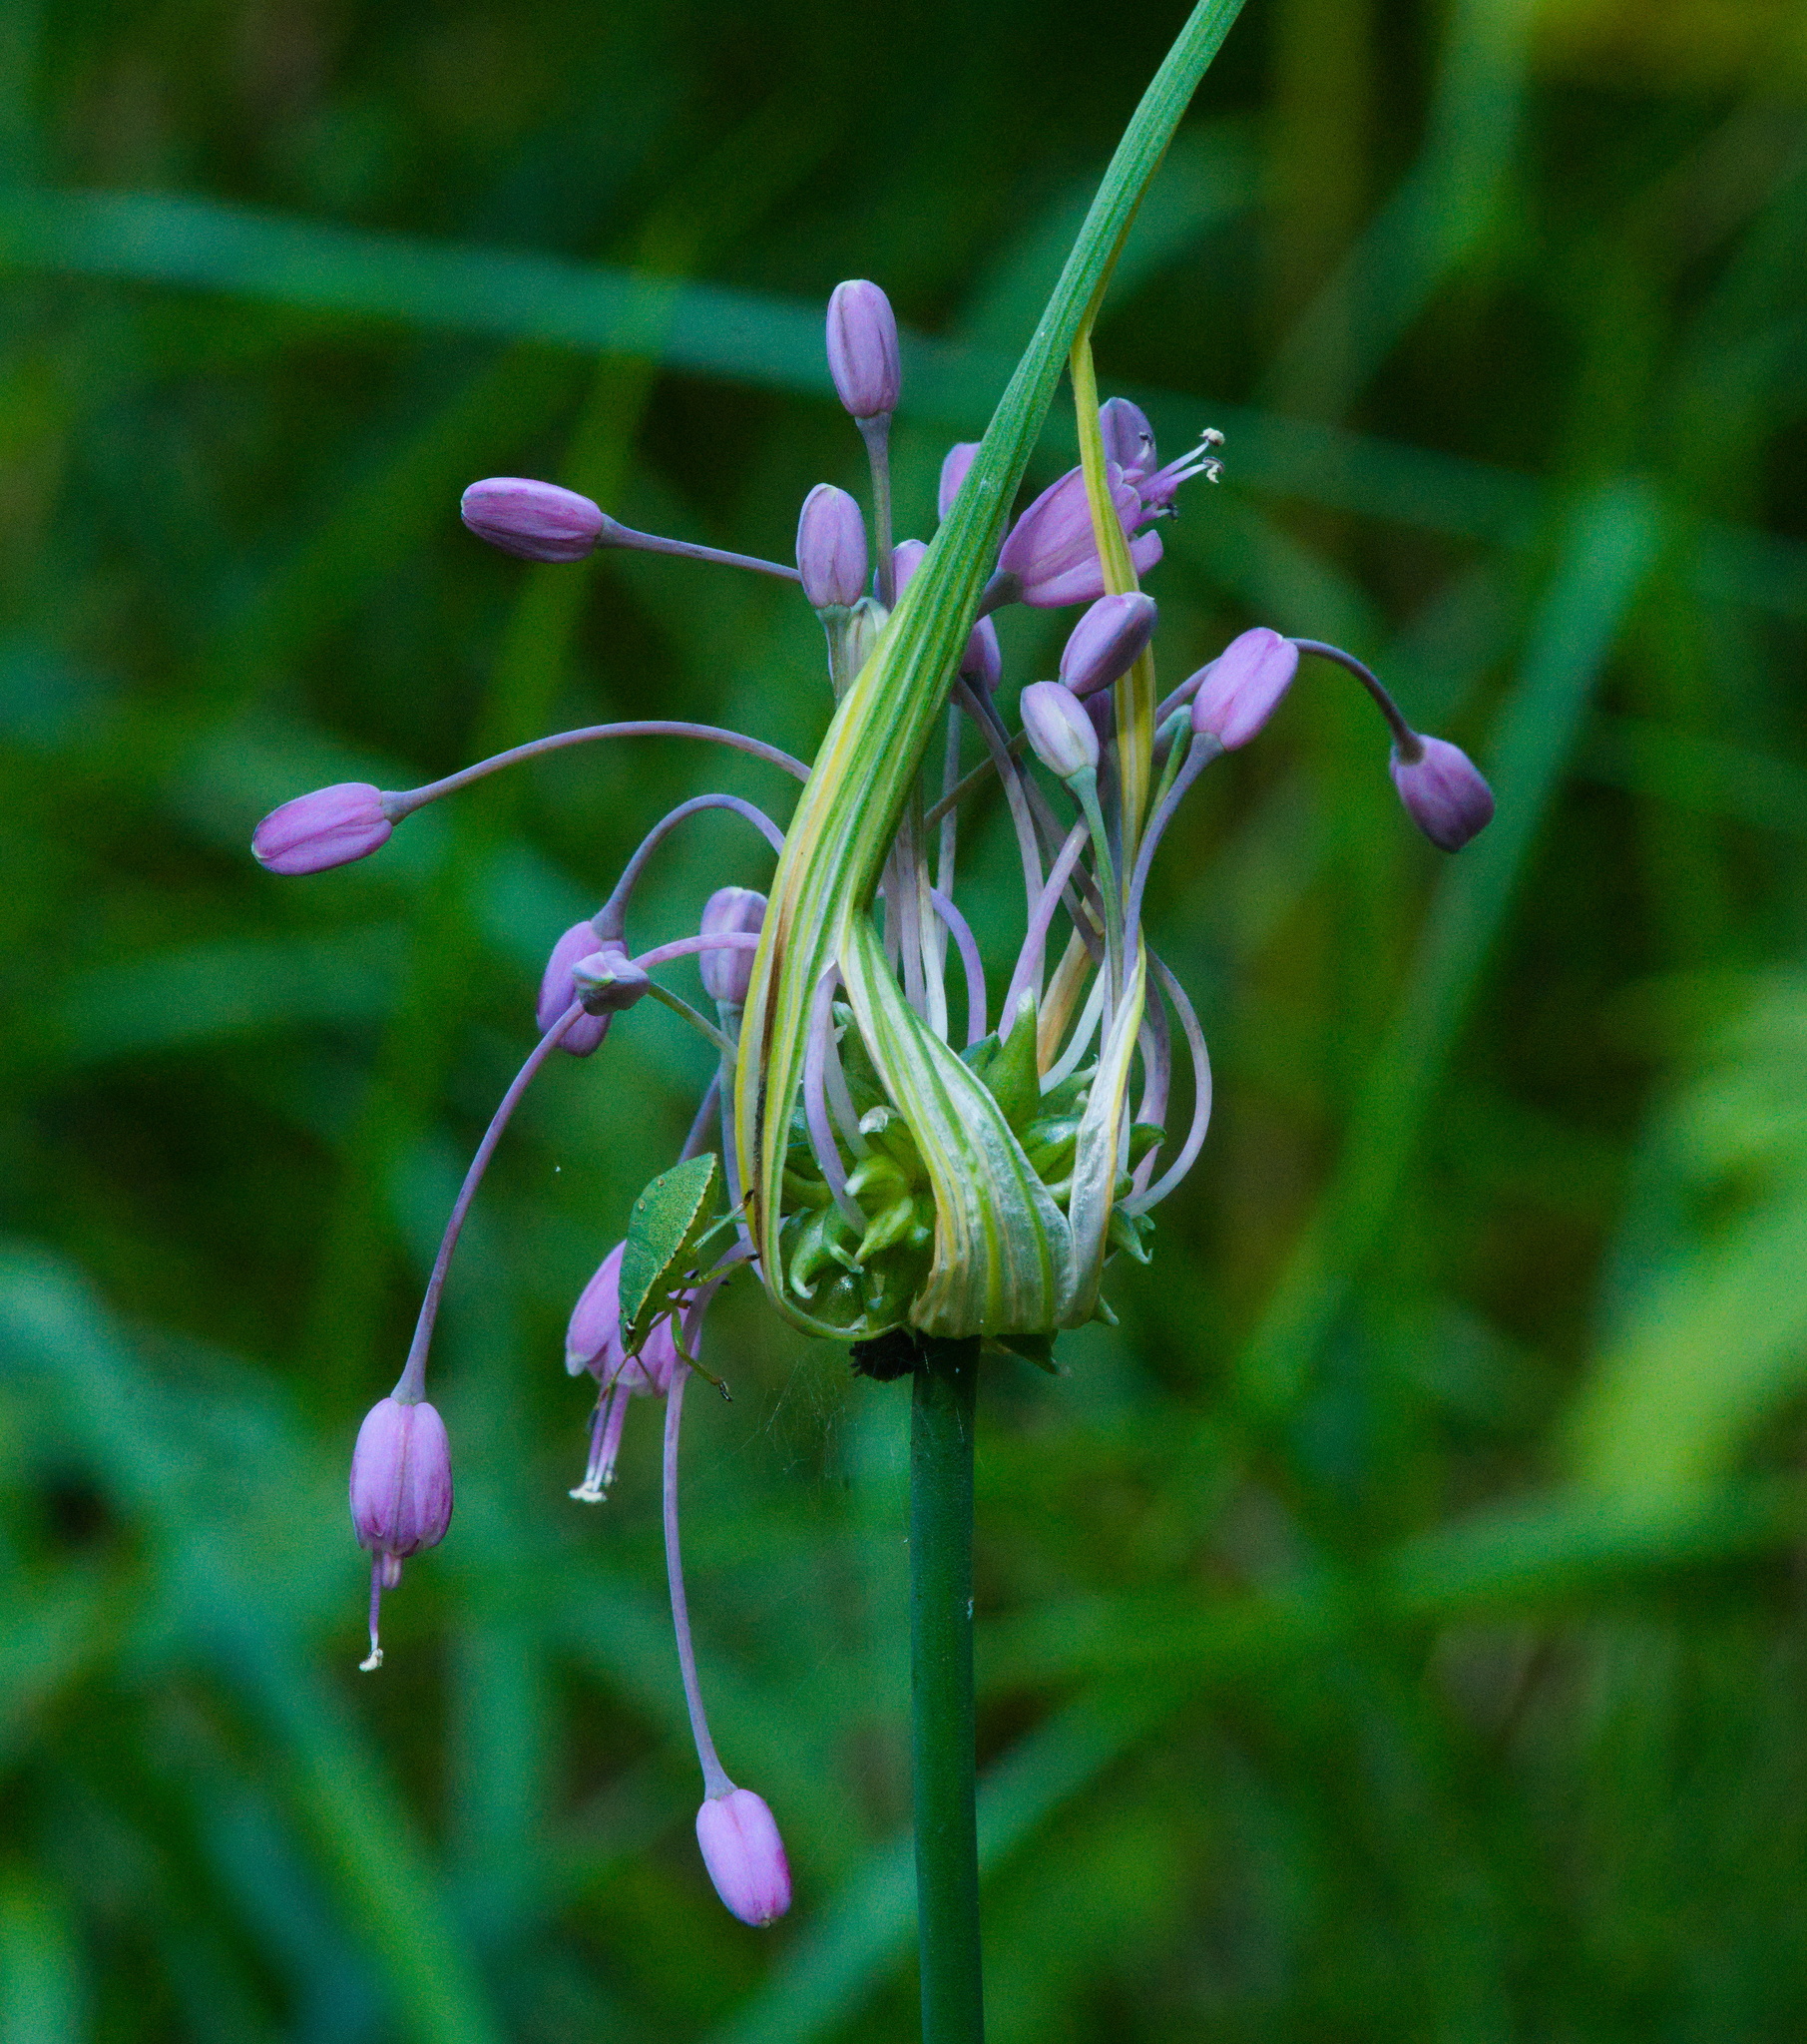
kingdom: Plantae
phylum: Tracheophyta
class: Liliopsida
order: Asparagales
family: Amaryllidaceae
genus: Allium
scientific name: Allium carinatum
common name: Keeled garlic
